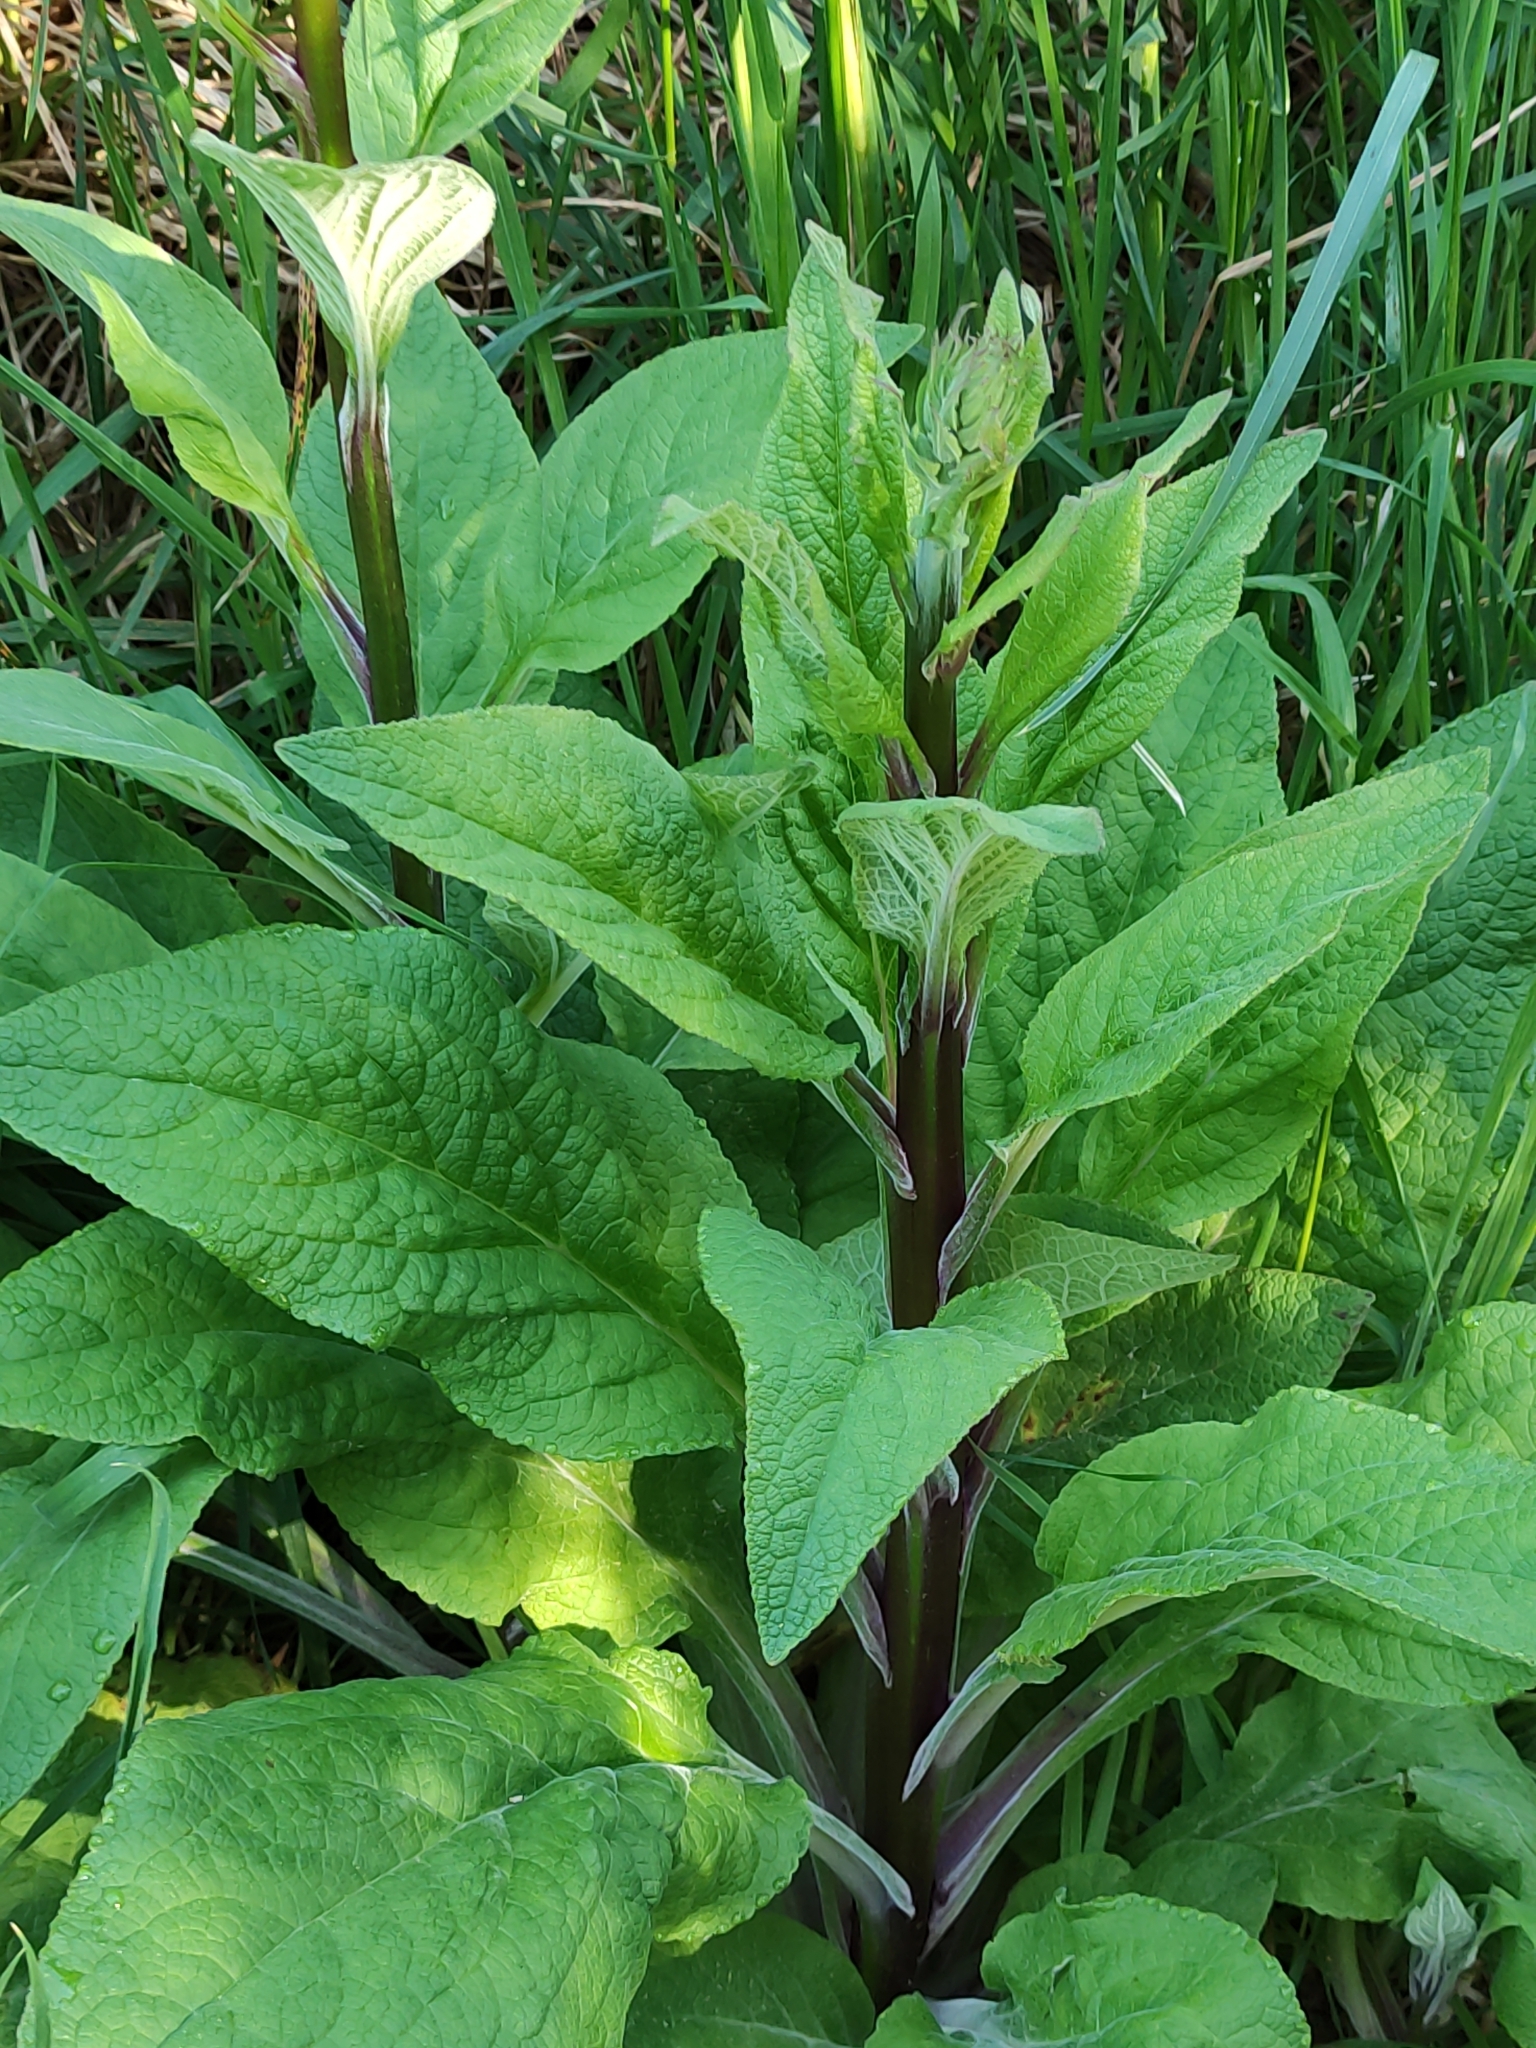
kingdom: Plantae
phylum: Tracheophyta
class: Magnoliopsida
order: Lamiales
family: Plantaginaceae
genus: Digitalis
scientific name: Digitalis purpurea
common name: Foxglove
